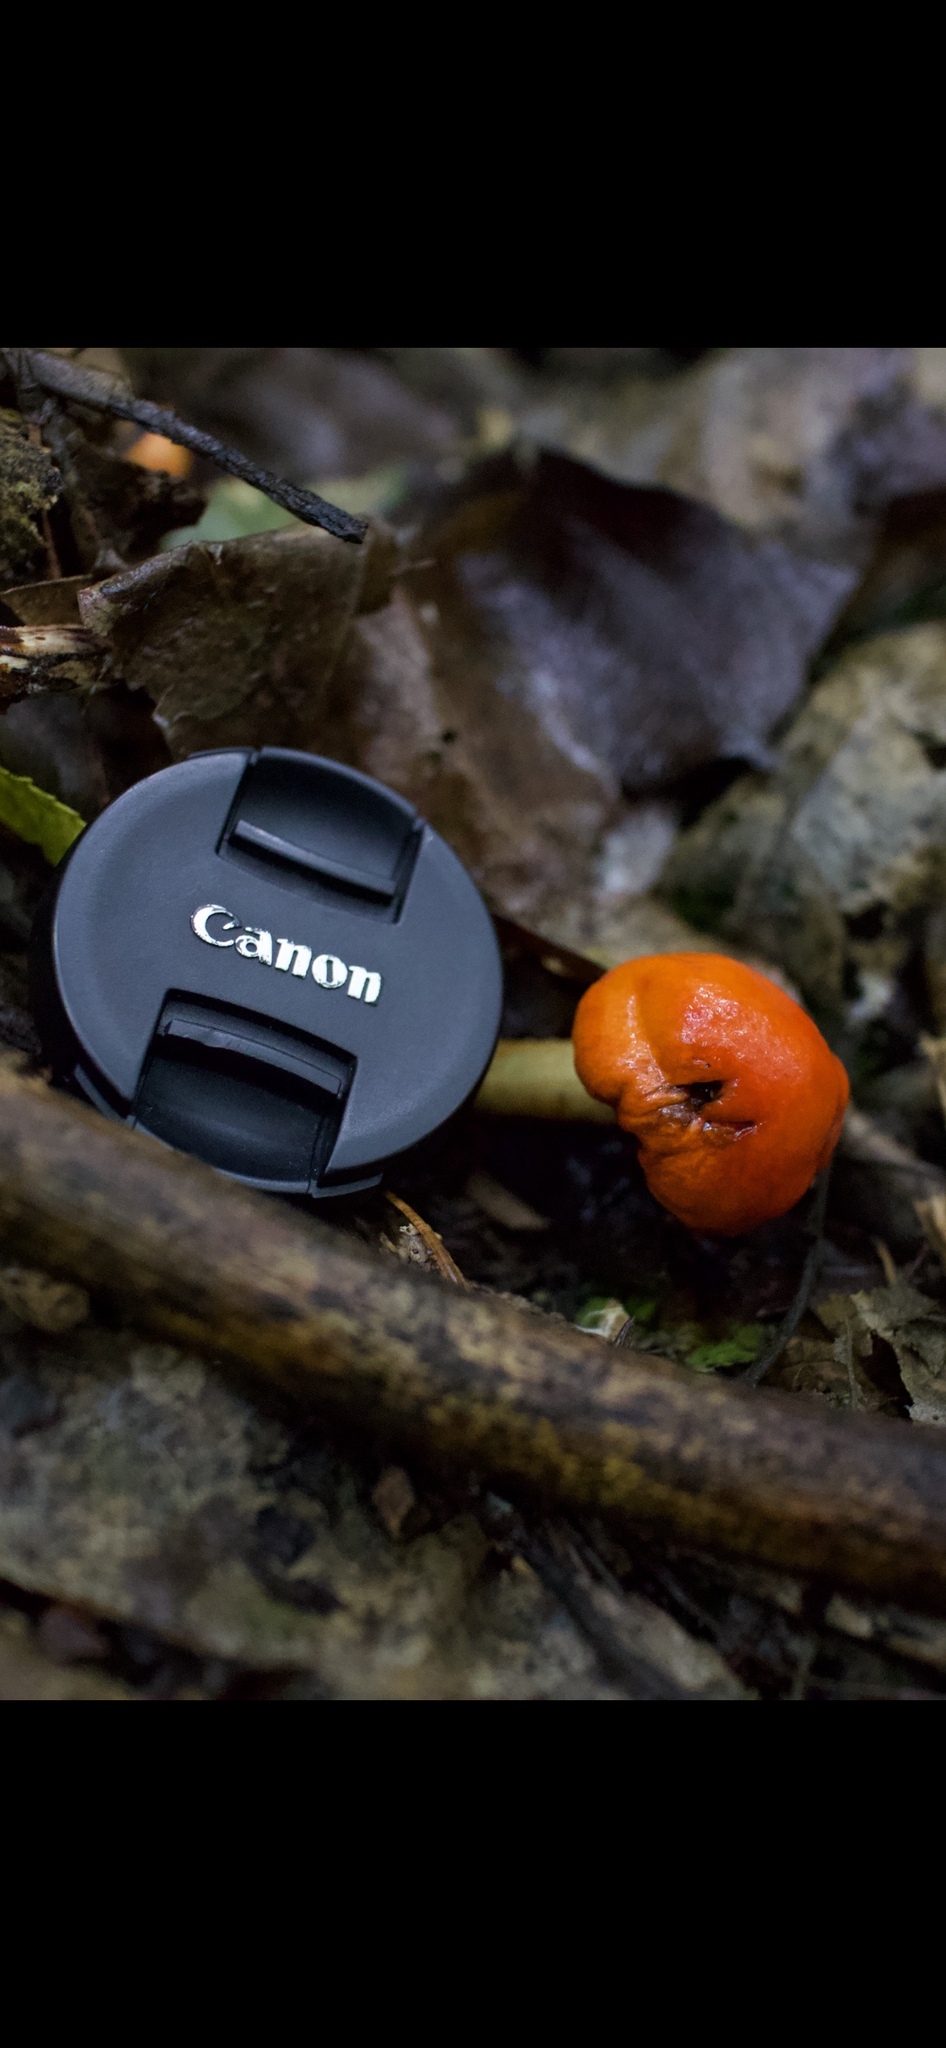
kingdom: Fungi
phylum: Basidiomycota
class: Agaricomycetes
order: Agaricales
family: Strophariaceae
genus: Leratiomyces
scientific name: Leratiomyces erythrocephalus
